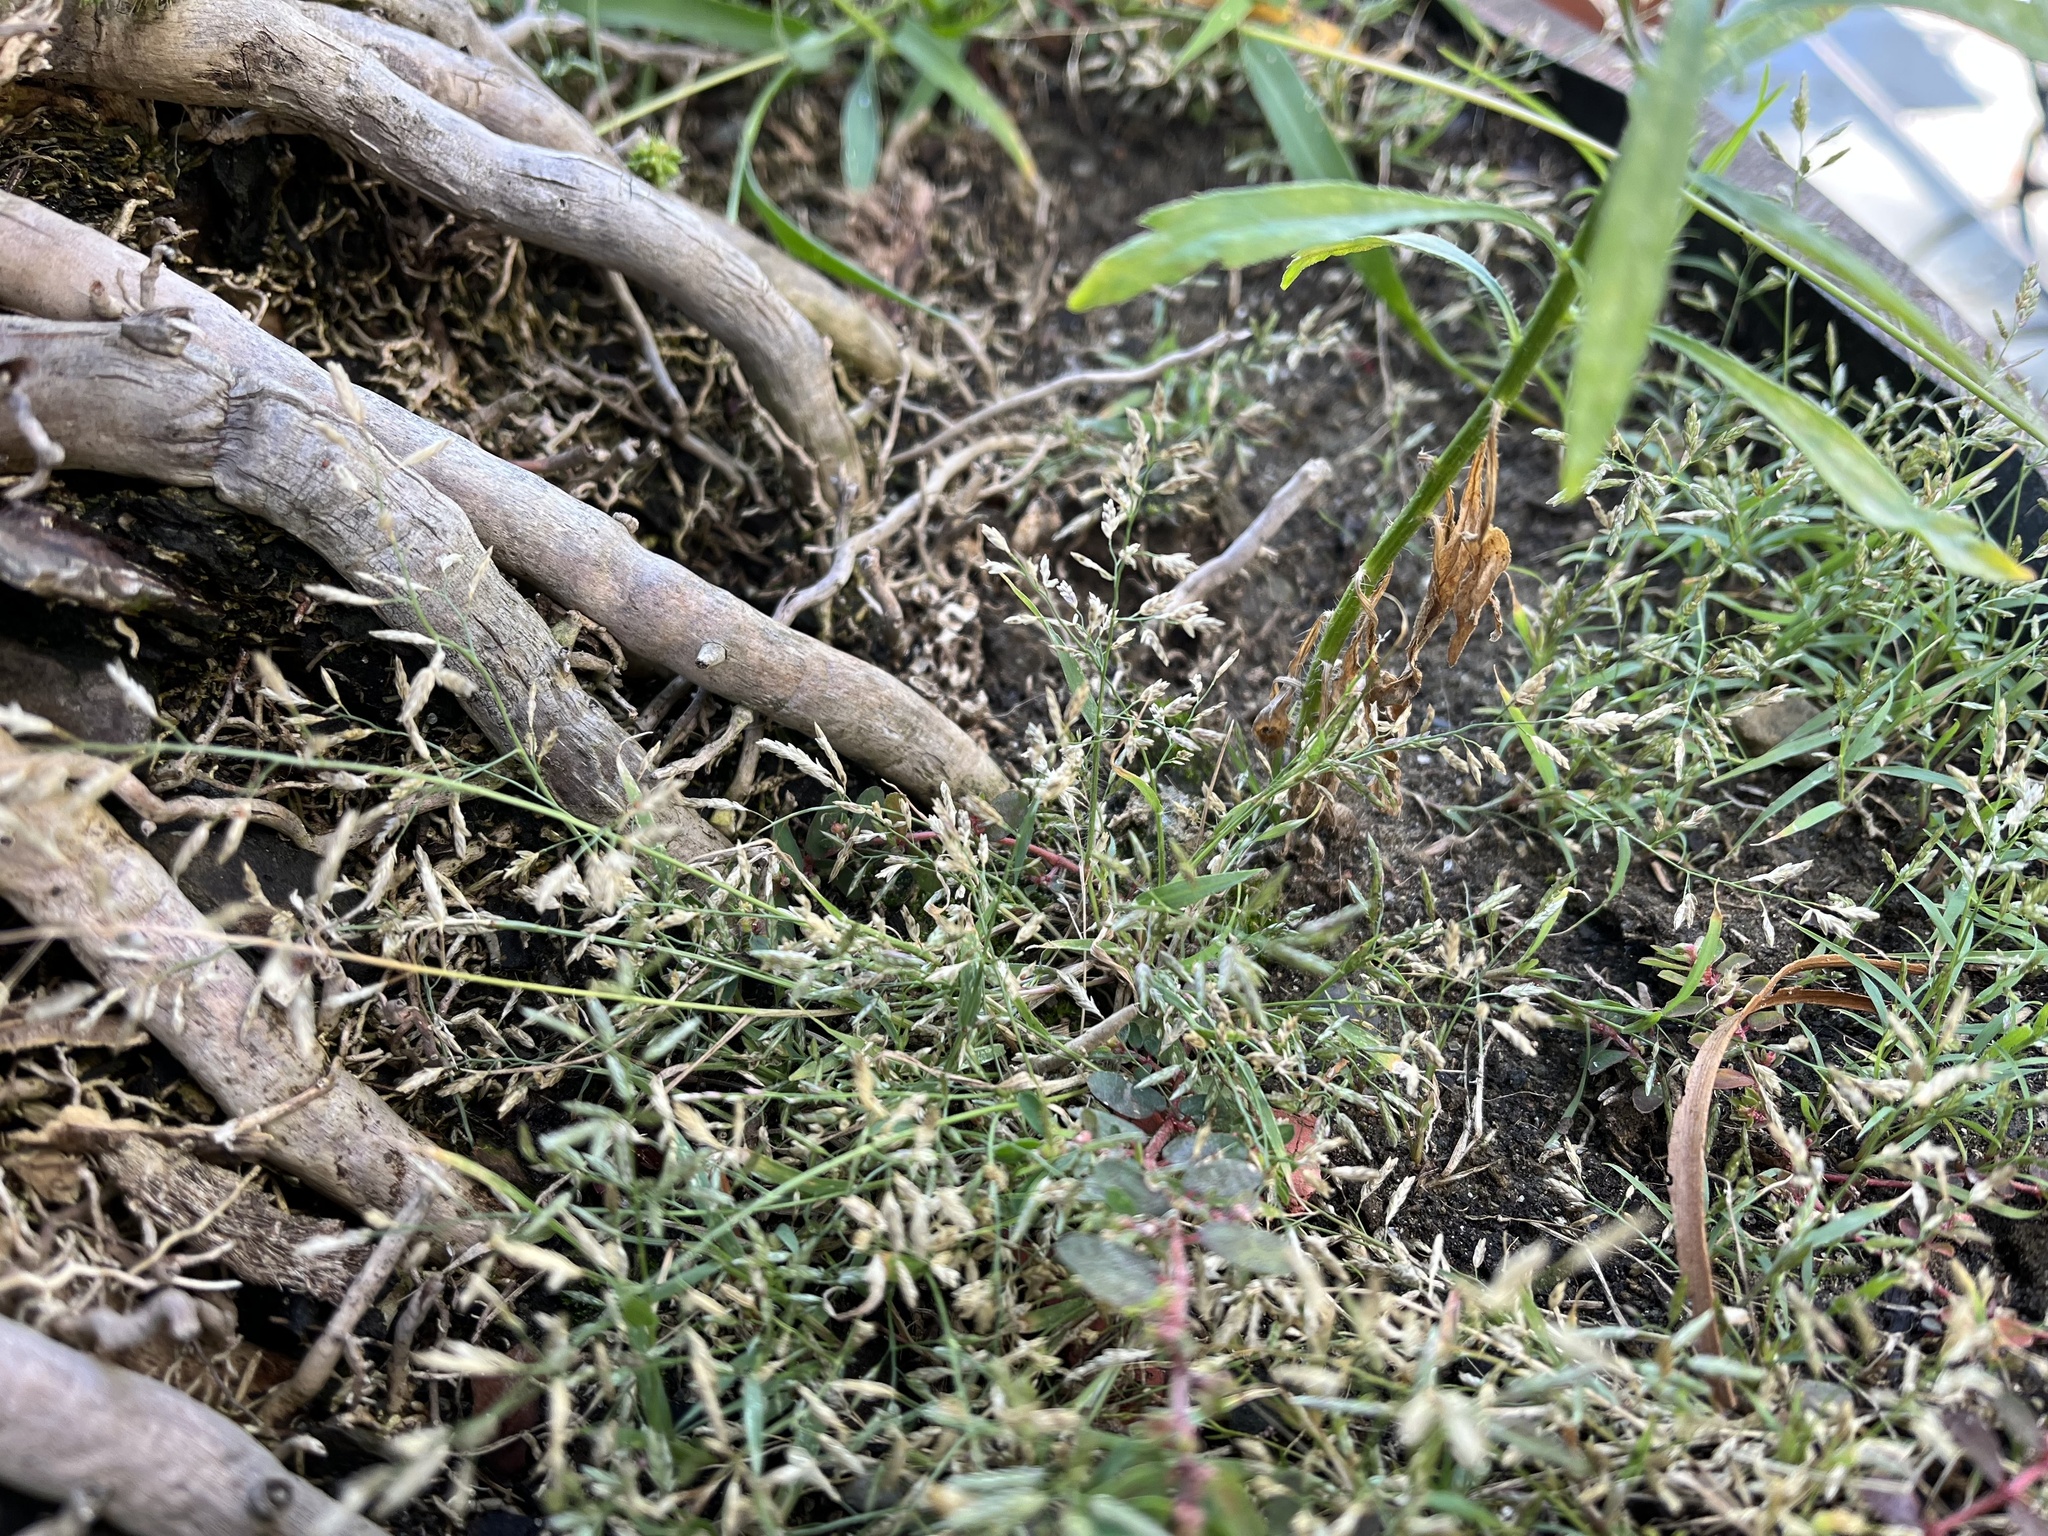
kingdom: Plantae
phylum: Tracheophyta
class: Liliopsida
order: Poales
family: Poaceae
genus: Eragrostis
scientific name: Eragrostis minor
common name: Small love-grass
